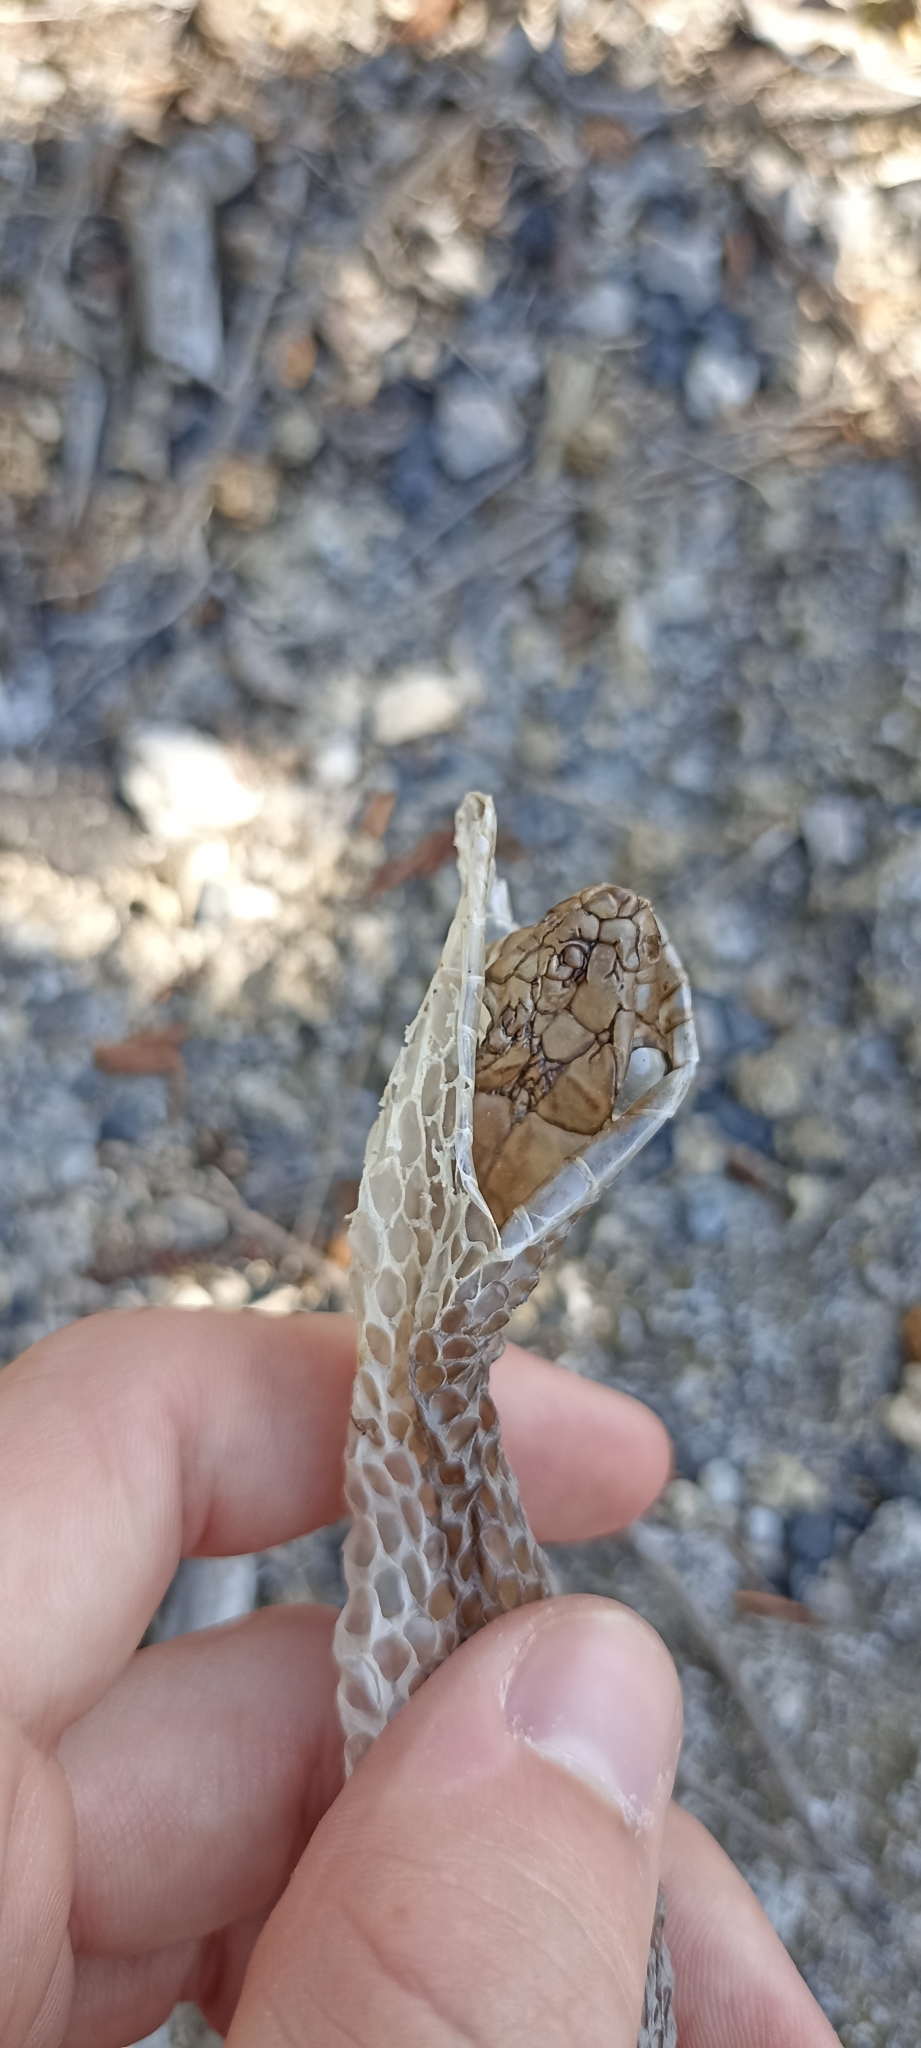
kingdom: Animalia
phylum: Chordata
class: Squamata
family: Psammophiidae
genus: Malpolon
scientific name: Malpolon monspessulanus
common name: Montpellier snake
